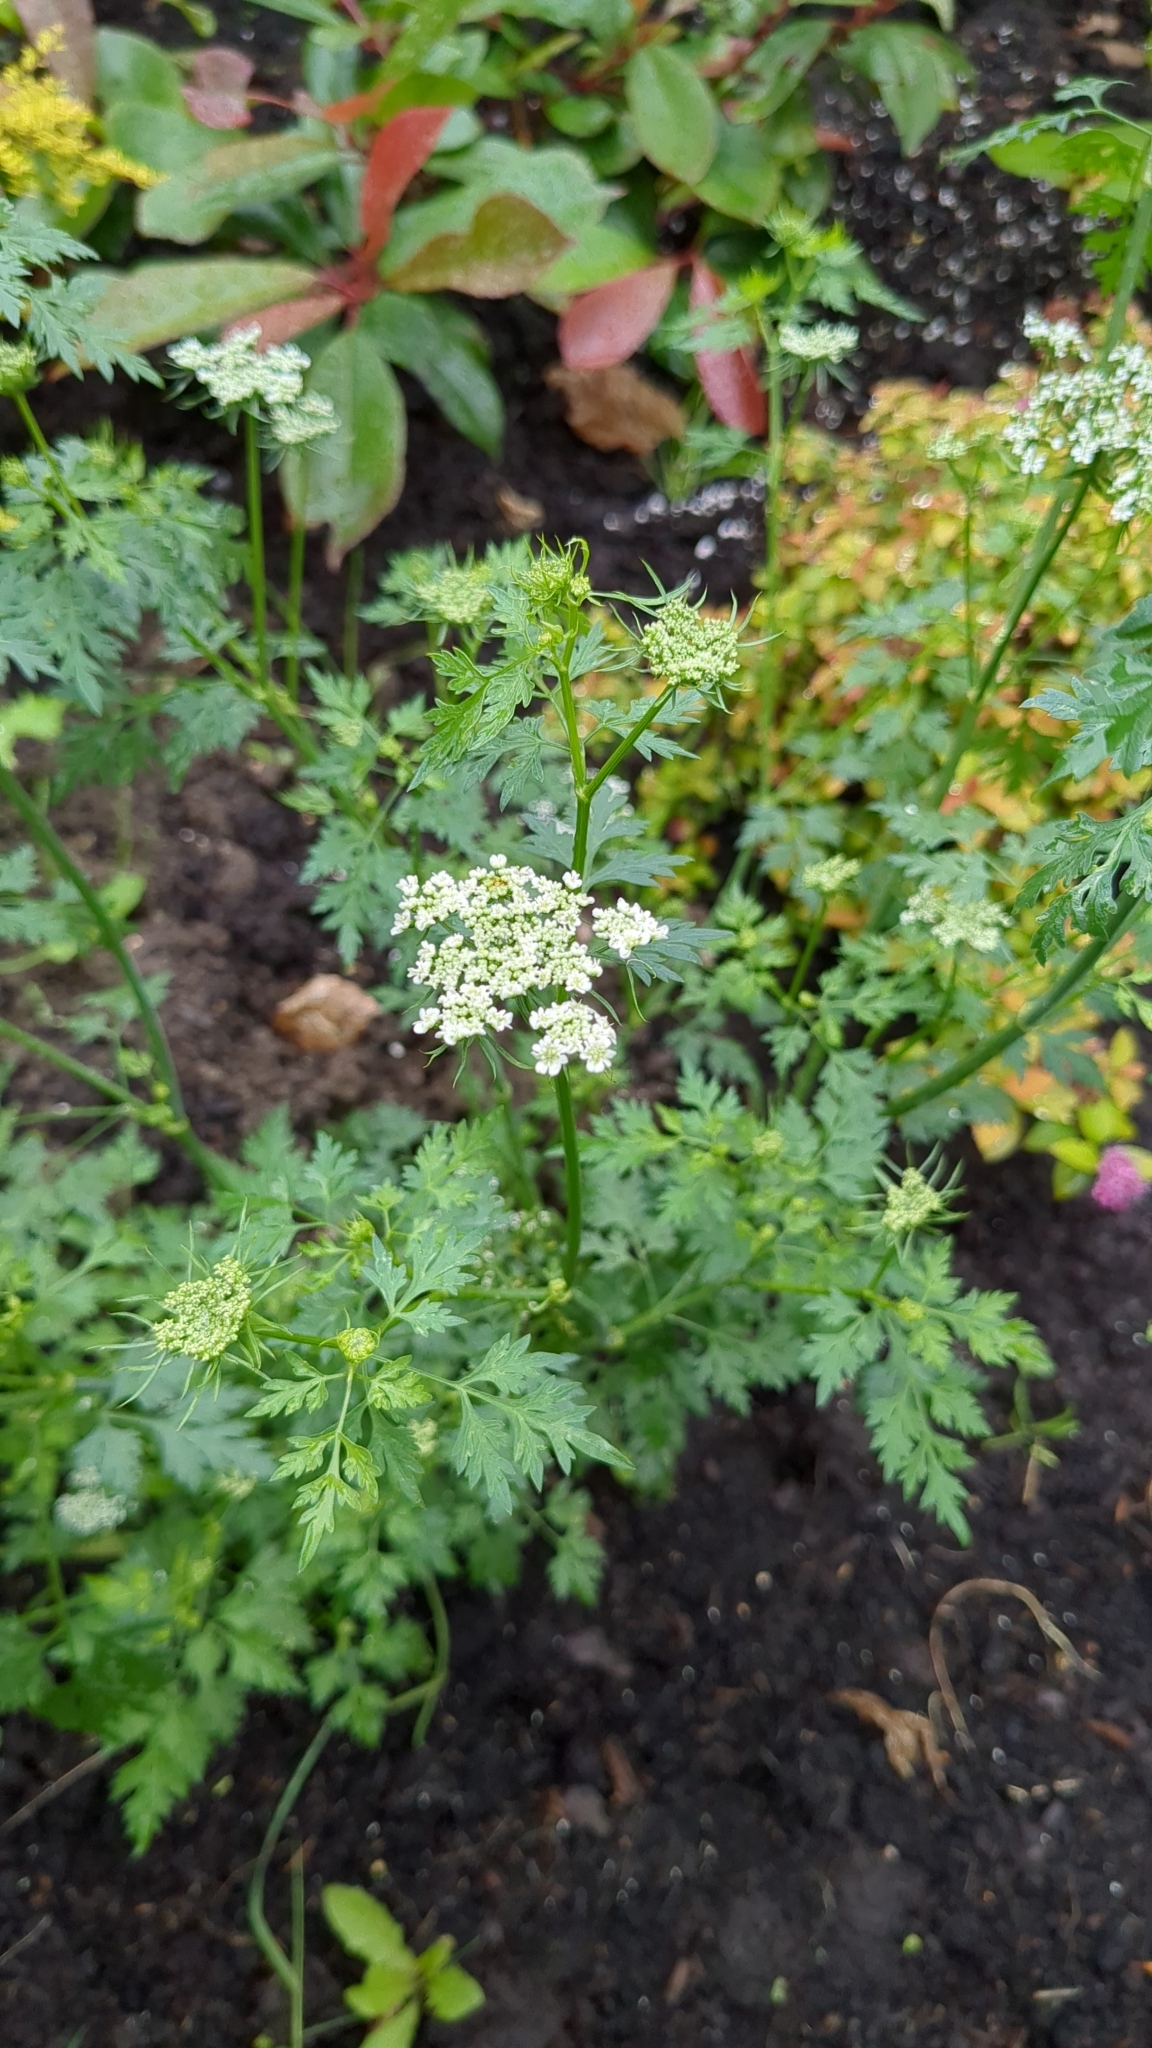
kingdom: Plantae
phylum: Tracheophyta
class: Magnoliopsida
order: Apiales
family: Apiaceae
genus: Aethusa
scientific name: Aethusa cynapium
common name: Fool's parsley
